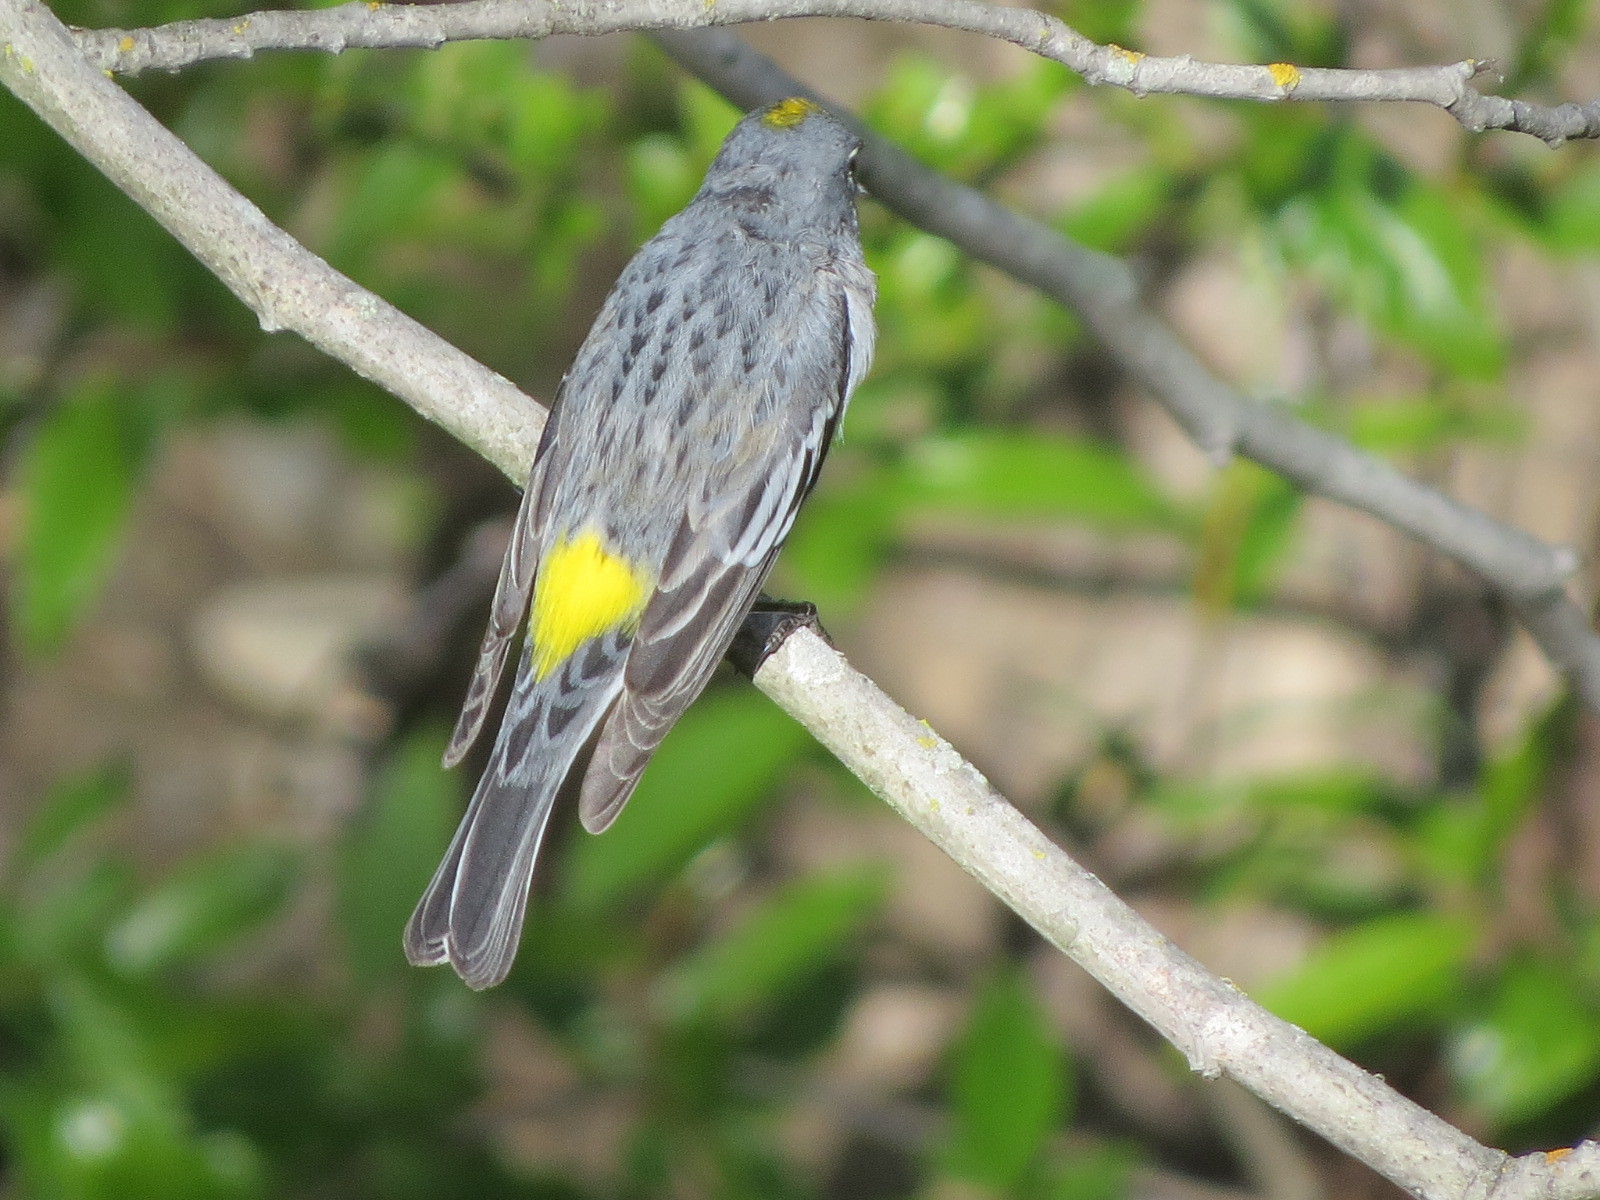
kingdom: Animalia
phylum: Chordata
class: Aves
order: Passeriformes
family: Parulidae
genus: Setophaga
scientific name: Setophaga auduboni
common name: Audubon's warbler
